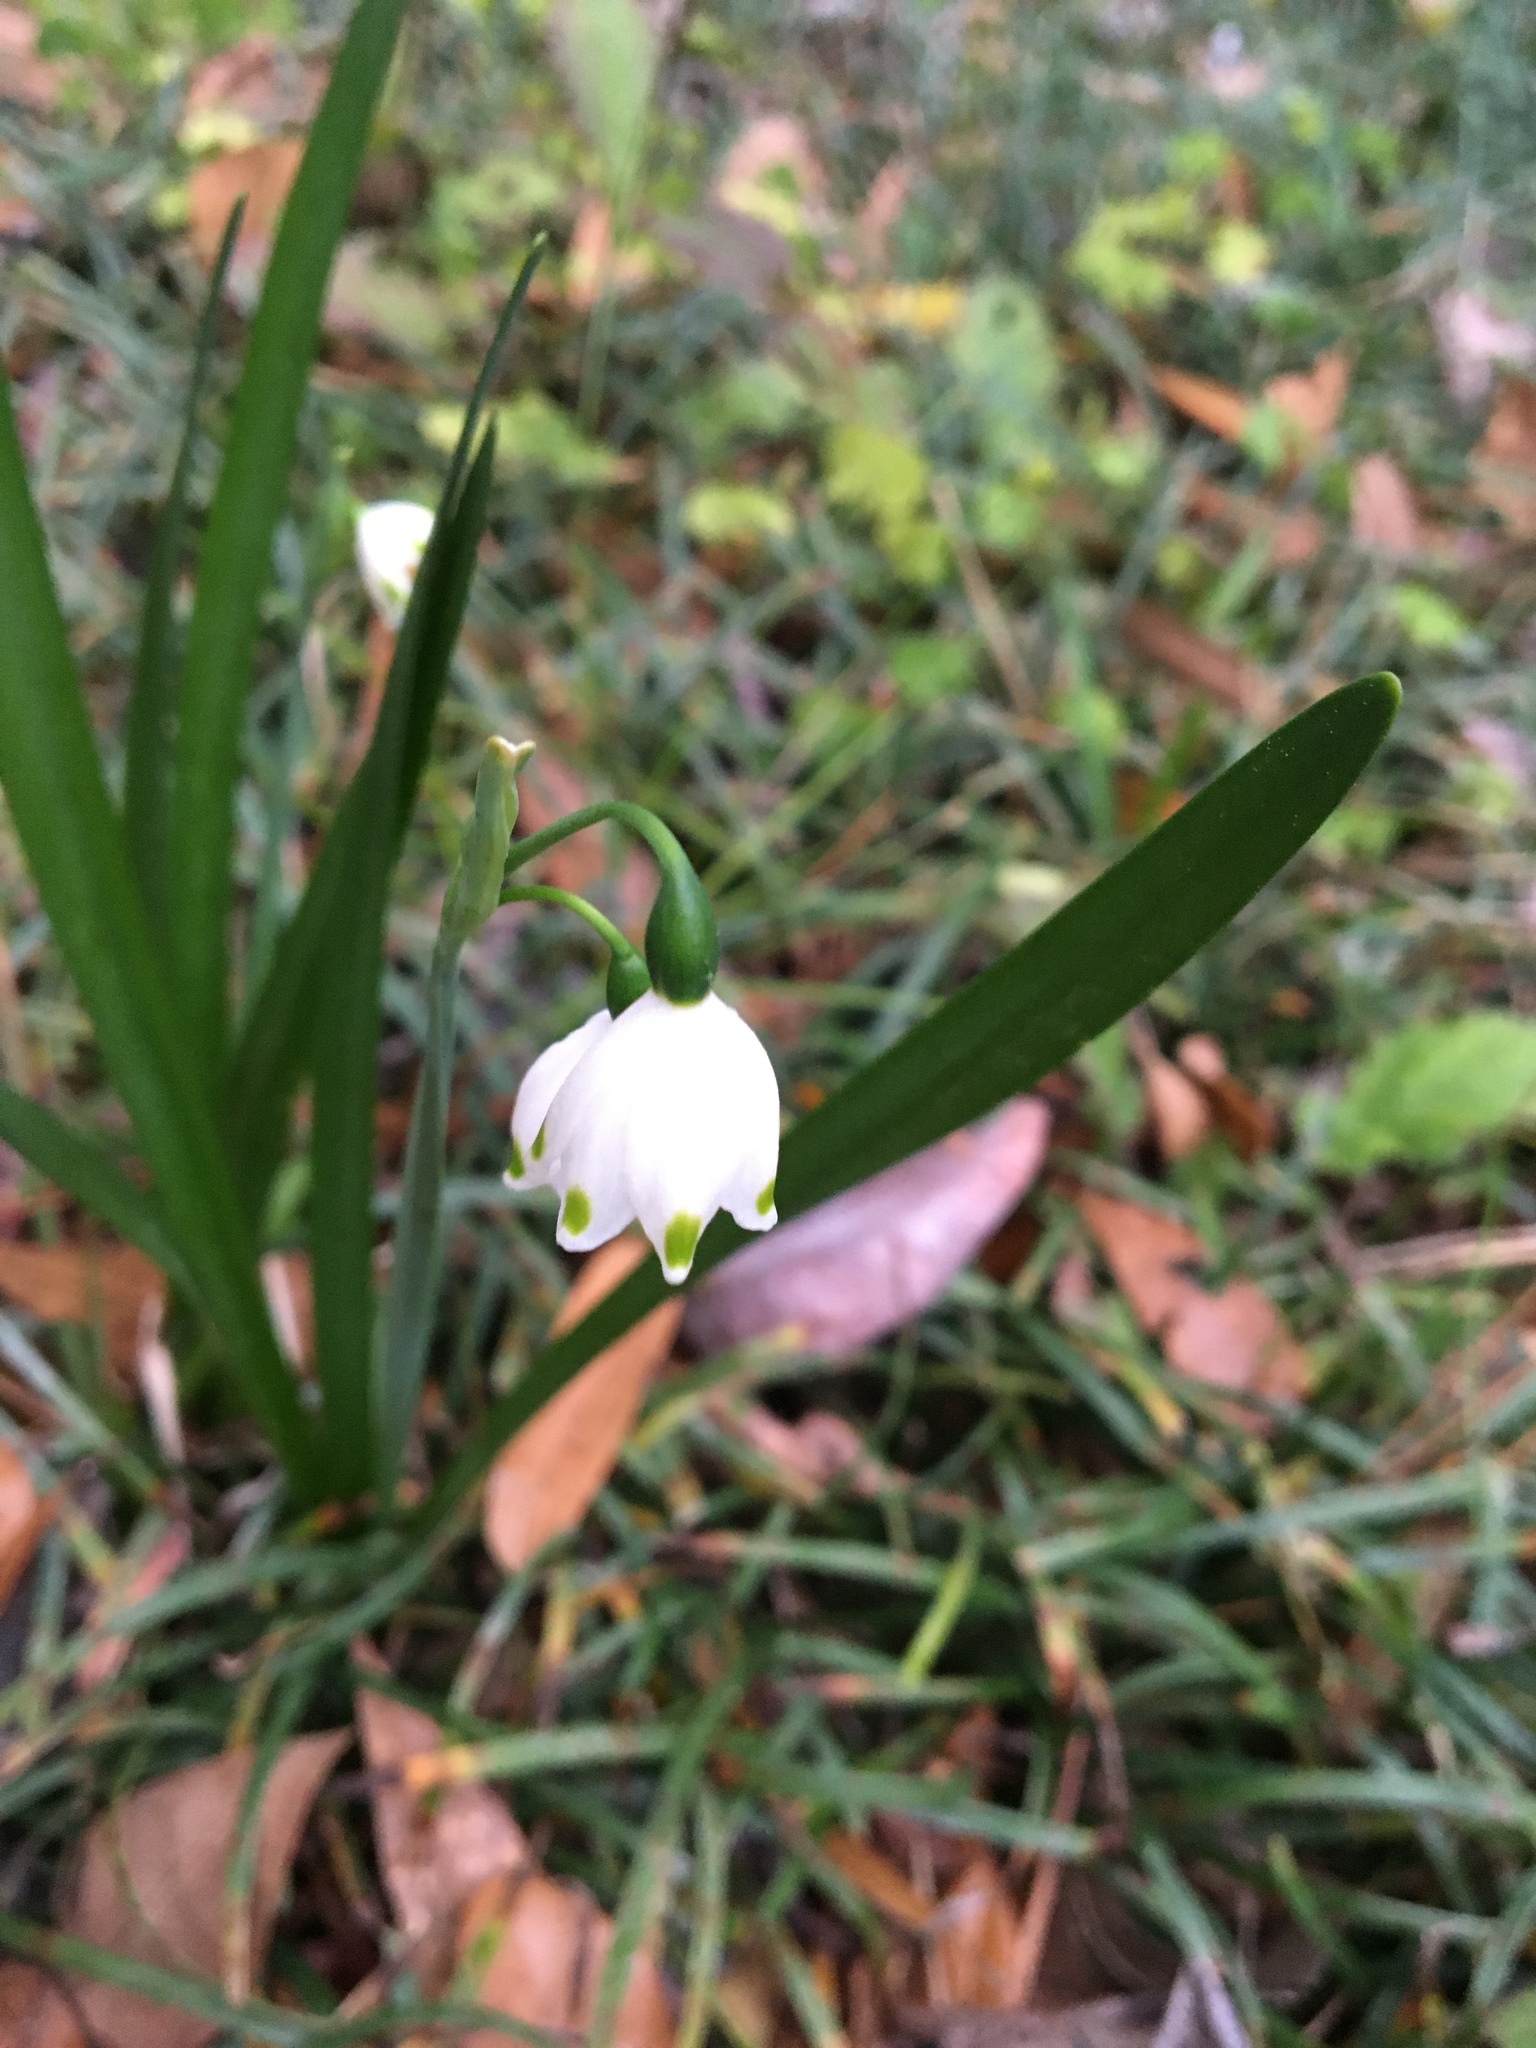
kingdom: Plantae
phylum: Tracheophyta
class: Liliopsida
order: Asparagales
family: Amaryllidaceae
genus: Leucojum
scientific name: Leucojum aestivum
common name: Summer snowflake
